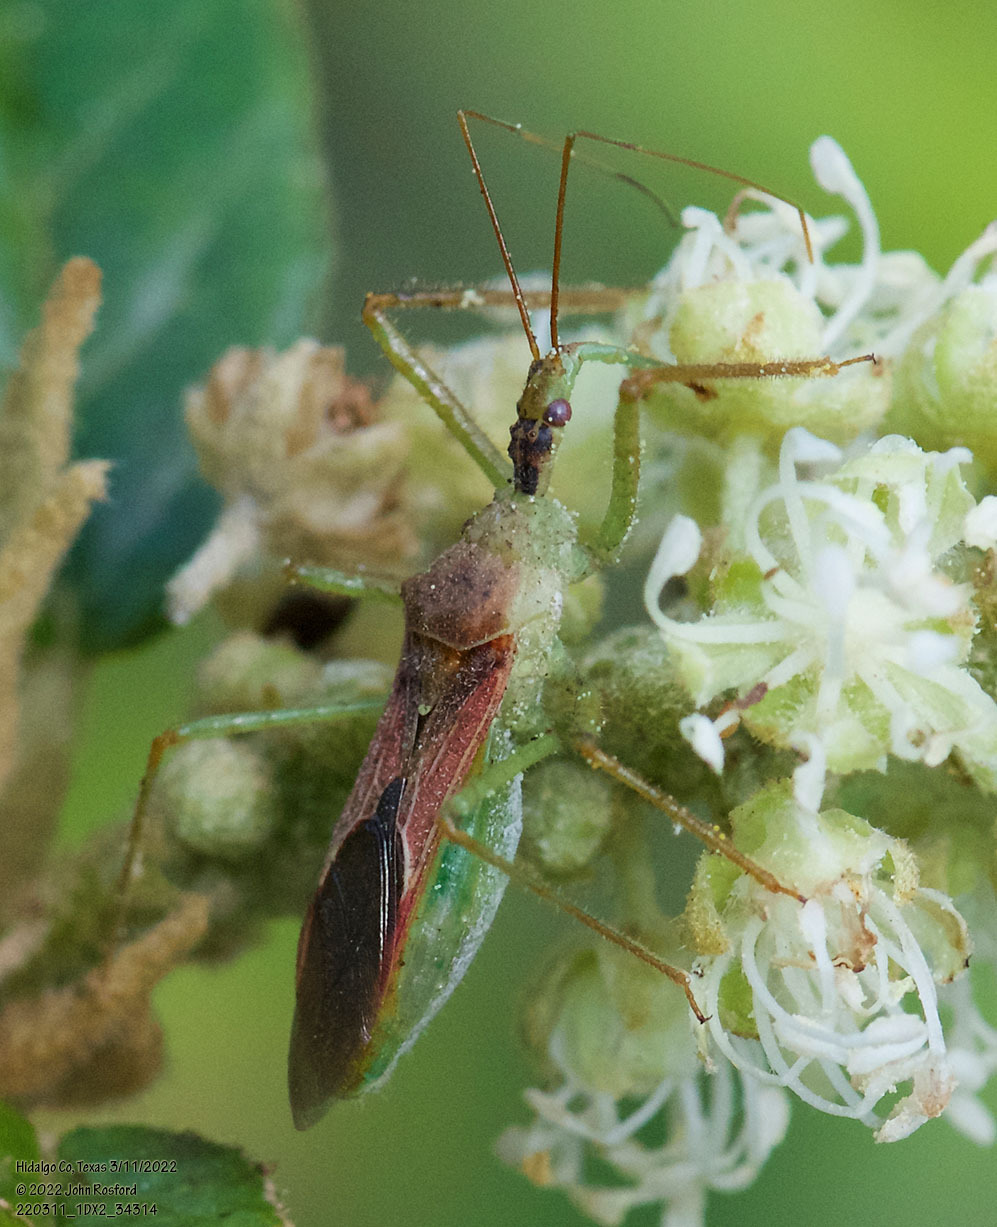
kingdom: Animalia
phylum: Arthropoda
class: Insecta
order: Hemiptera
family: Reduviidae
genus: Zelus
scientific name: Zelus renardii
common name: Assassin bug
